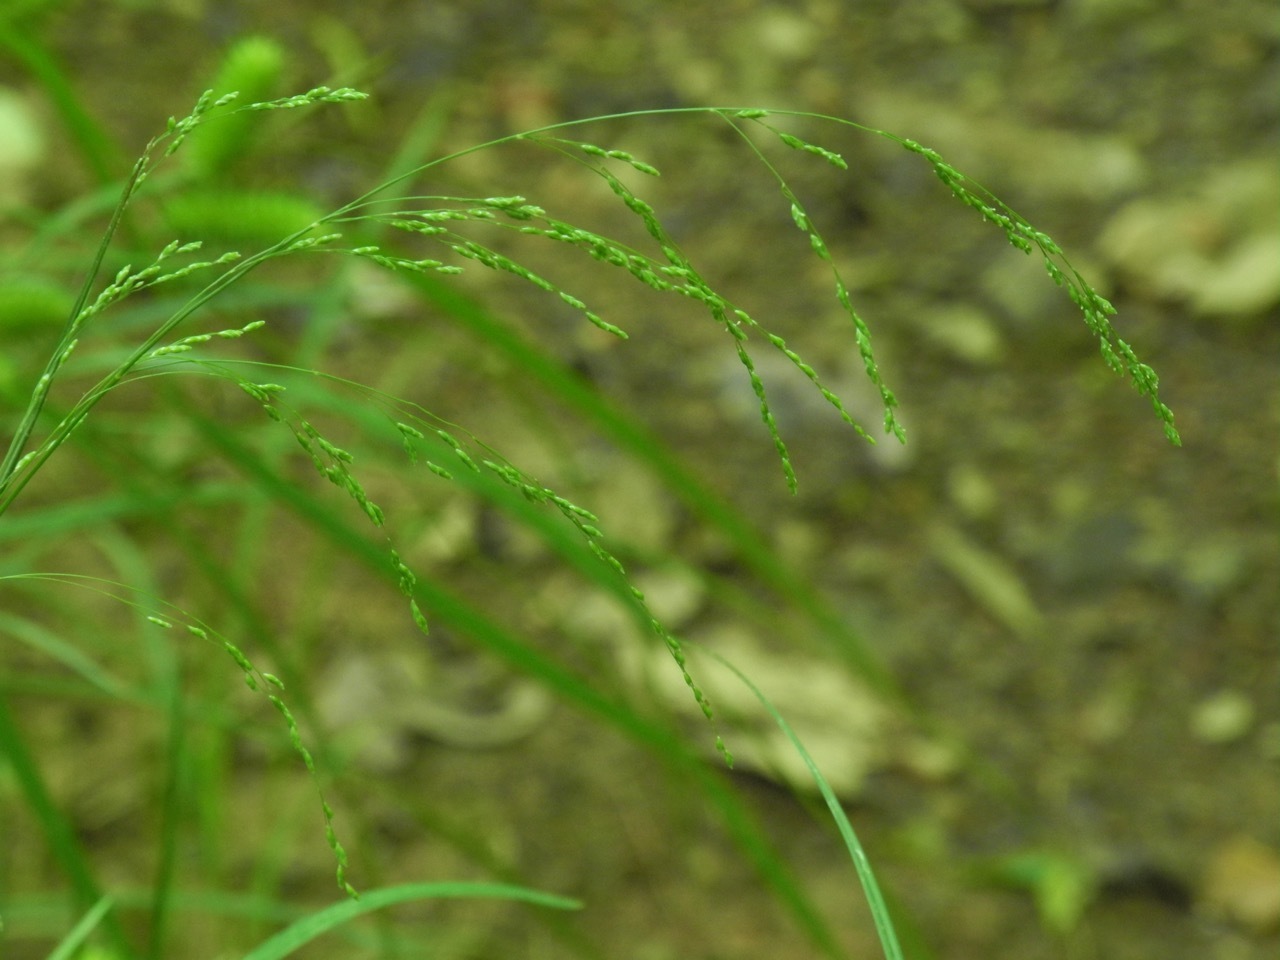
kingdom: Plantae
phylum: Tracheophyta
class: Liliopsida
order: Poales
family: Poaceae
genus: Glyceria
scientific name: Glyceria striata
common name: Fowl manna grass
